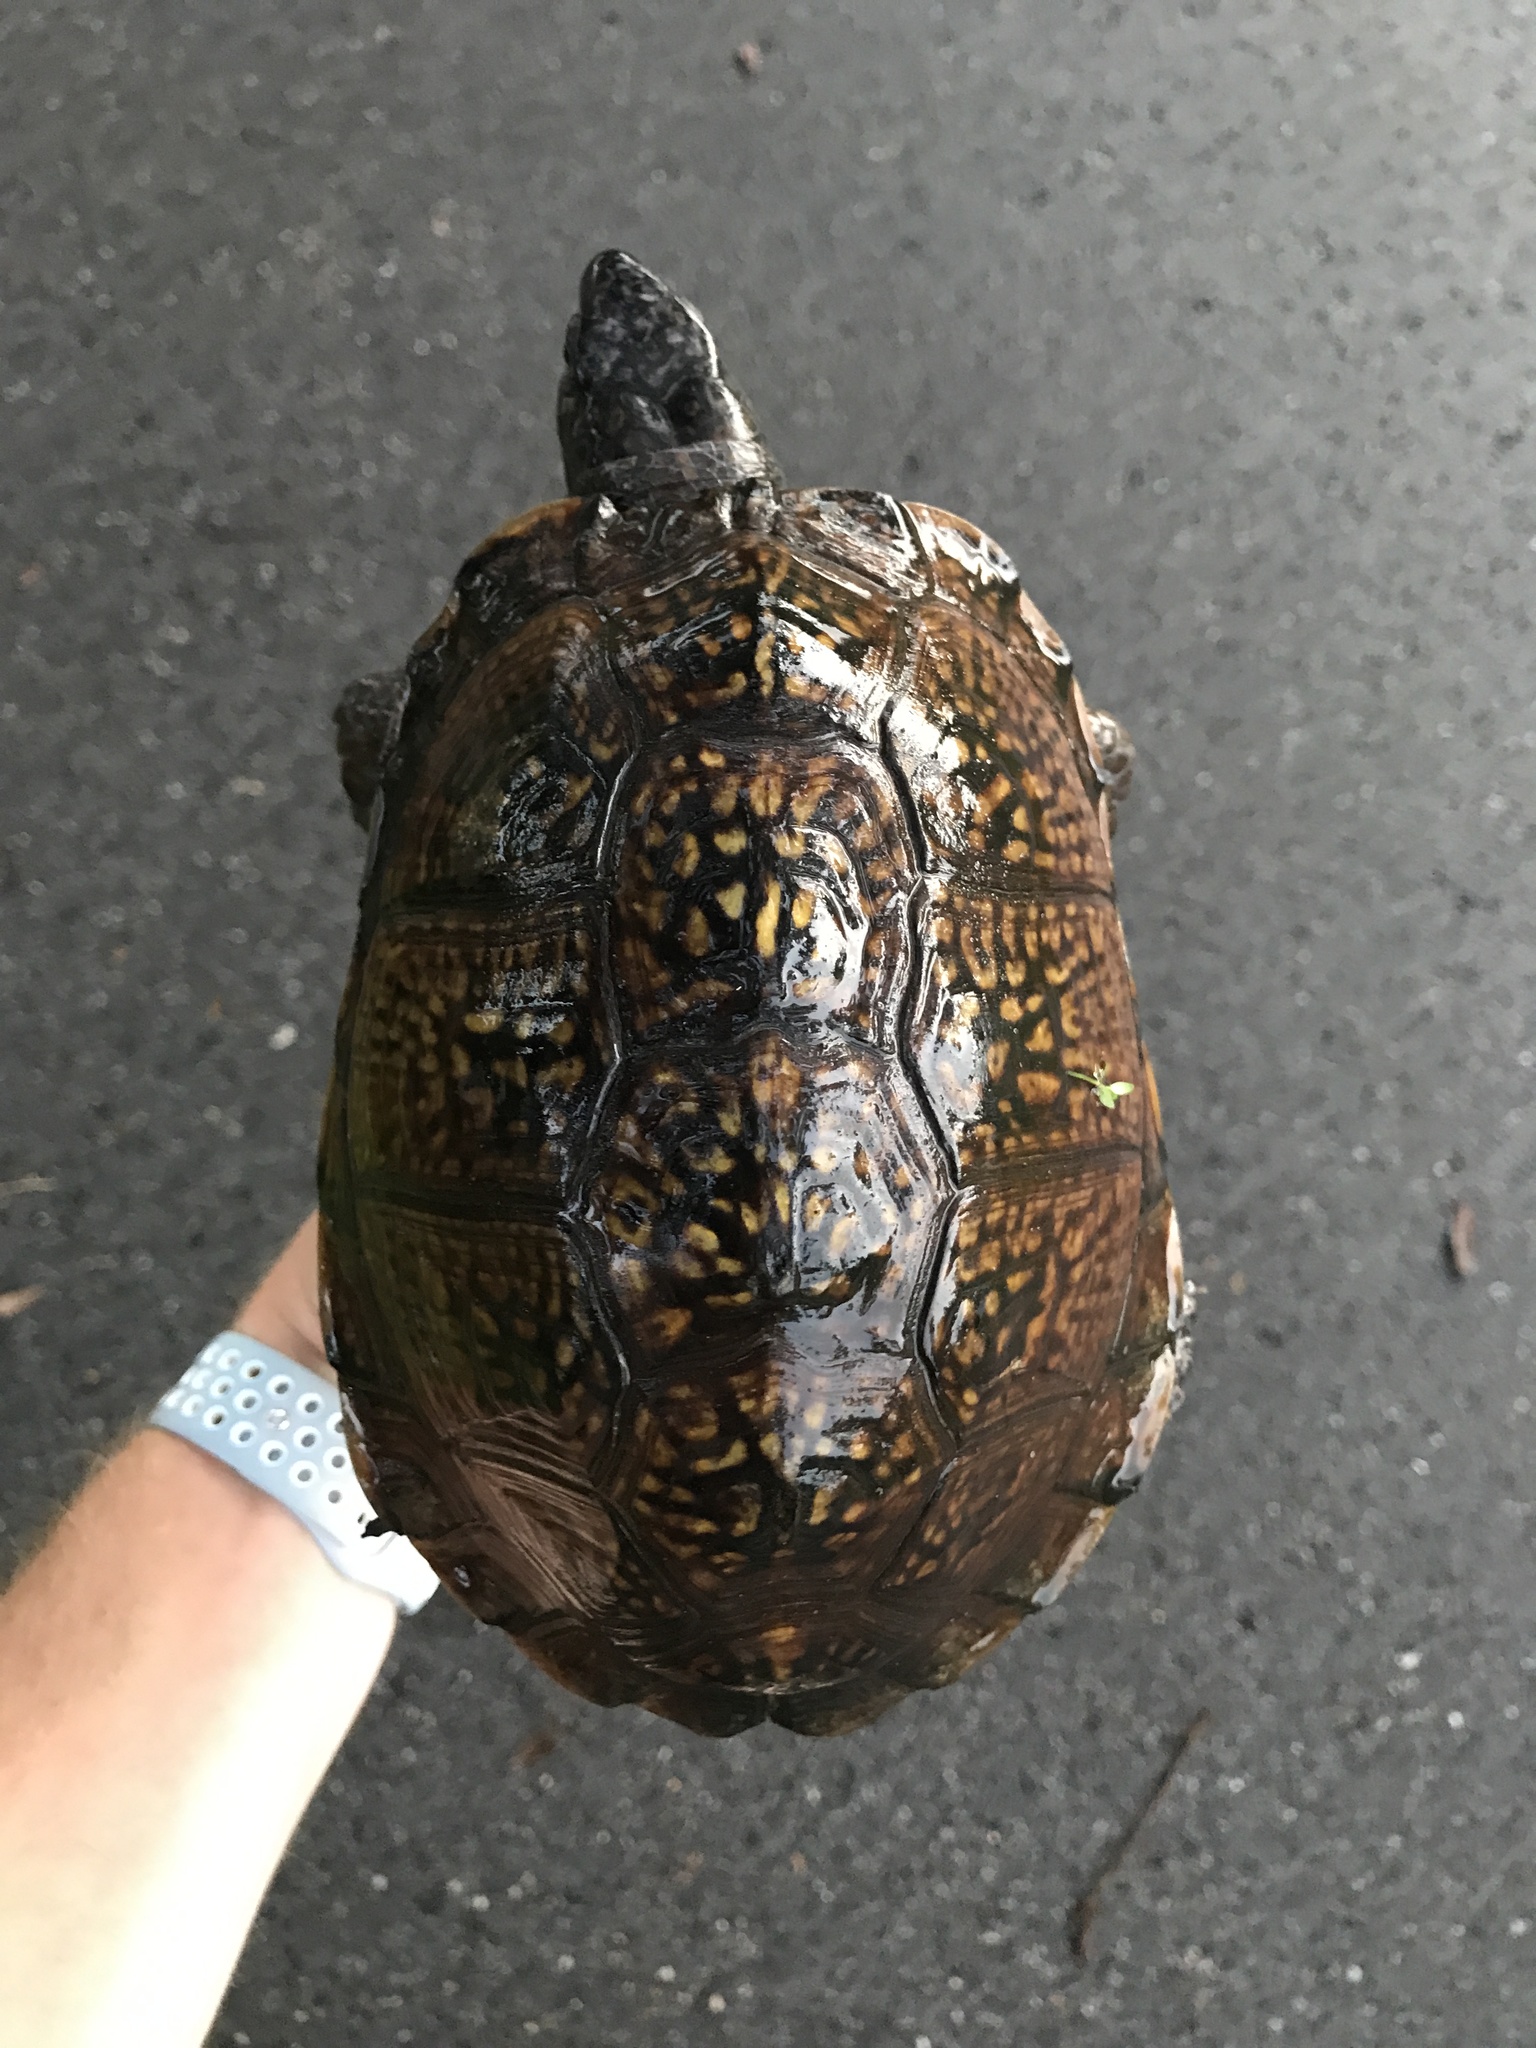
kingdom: Animalia
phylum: Chordata
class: Testudines
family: Emydidae
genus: Terrapene
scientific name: Terrapene carolina
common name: Common box turtle
